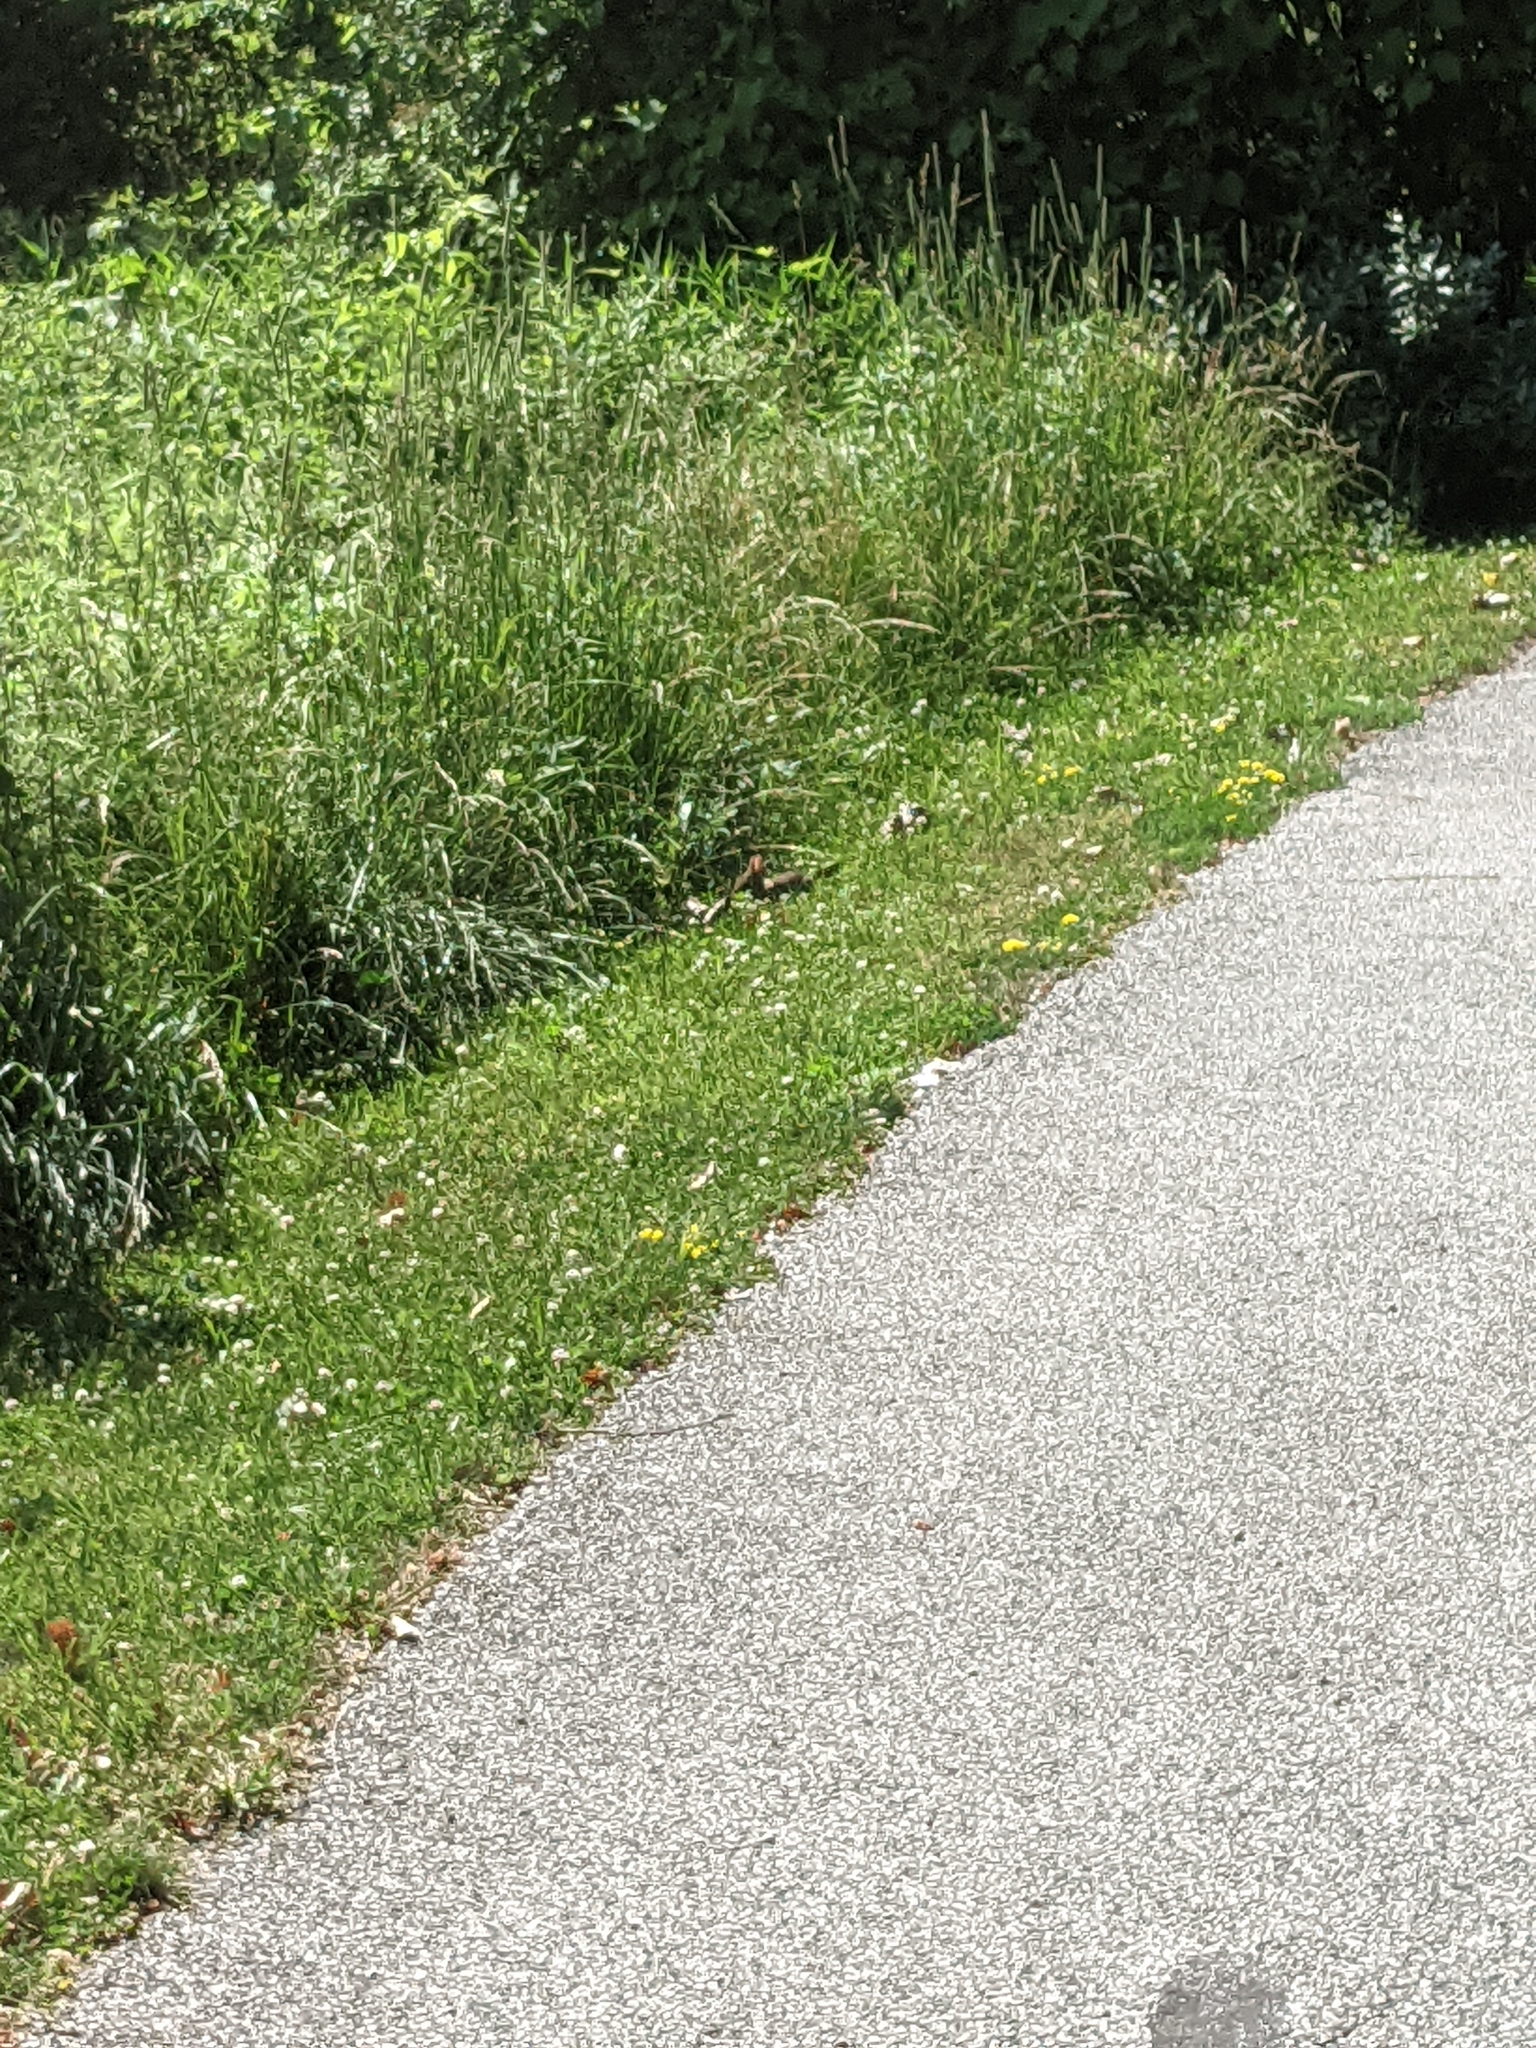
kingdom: Animalia
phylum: Chordata
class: Mammalia
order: Lagomorpha
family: Leporidae
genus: Sylvilagus
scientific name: Sylvilagus floridanus
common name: Eastern cottontail
